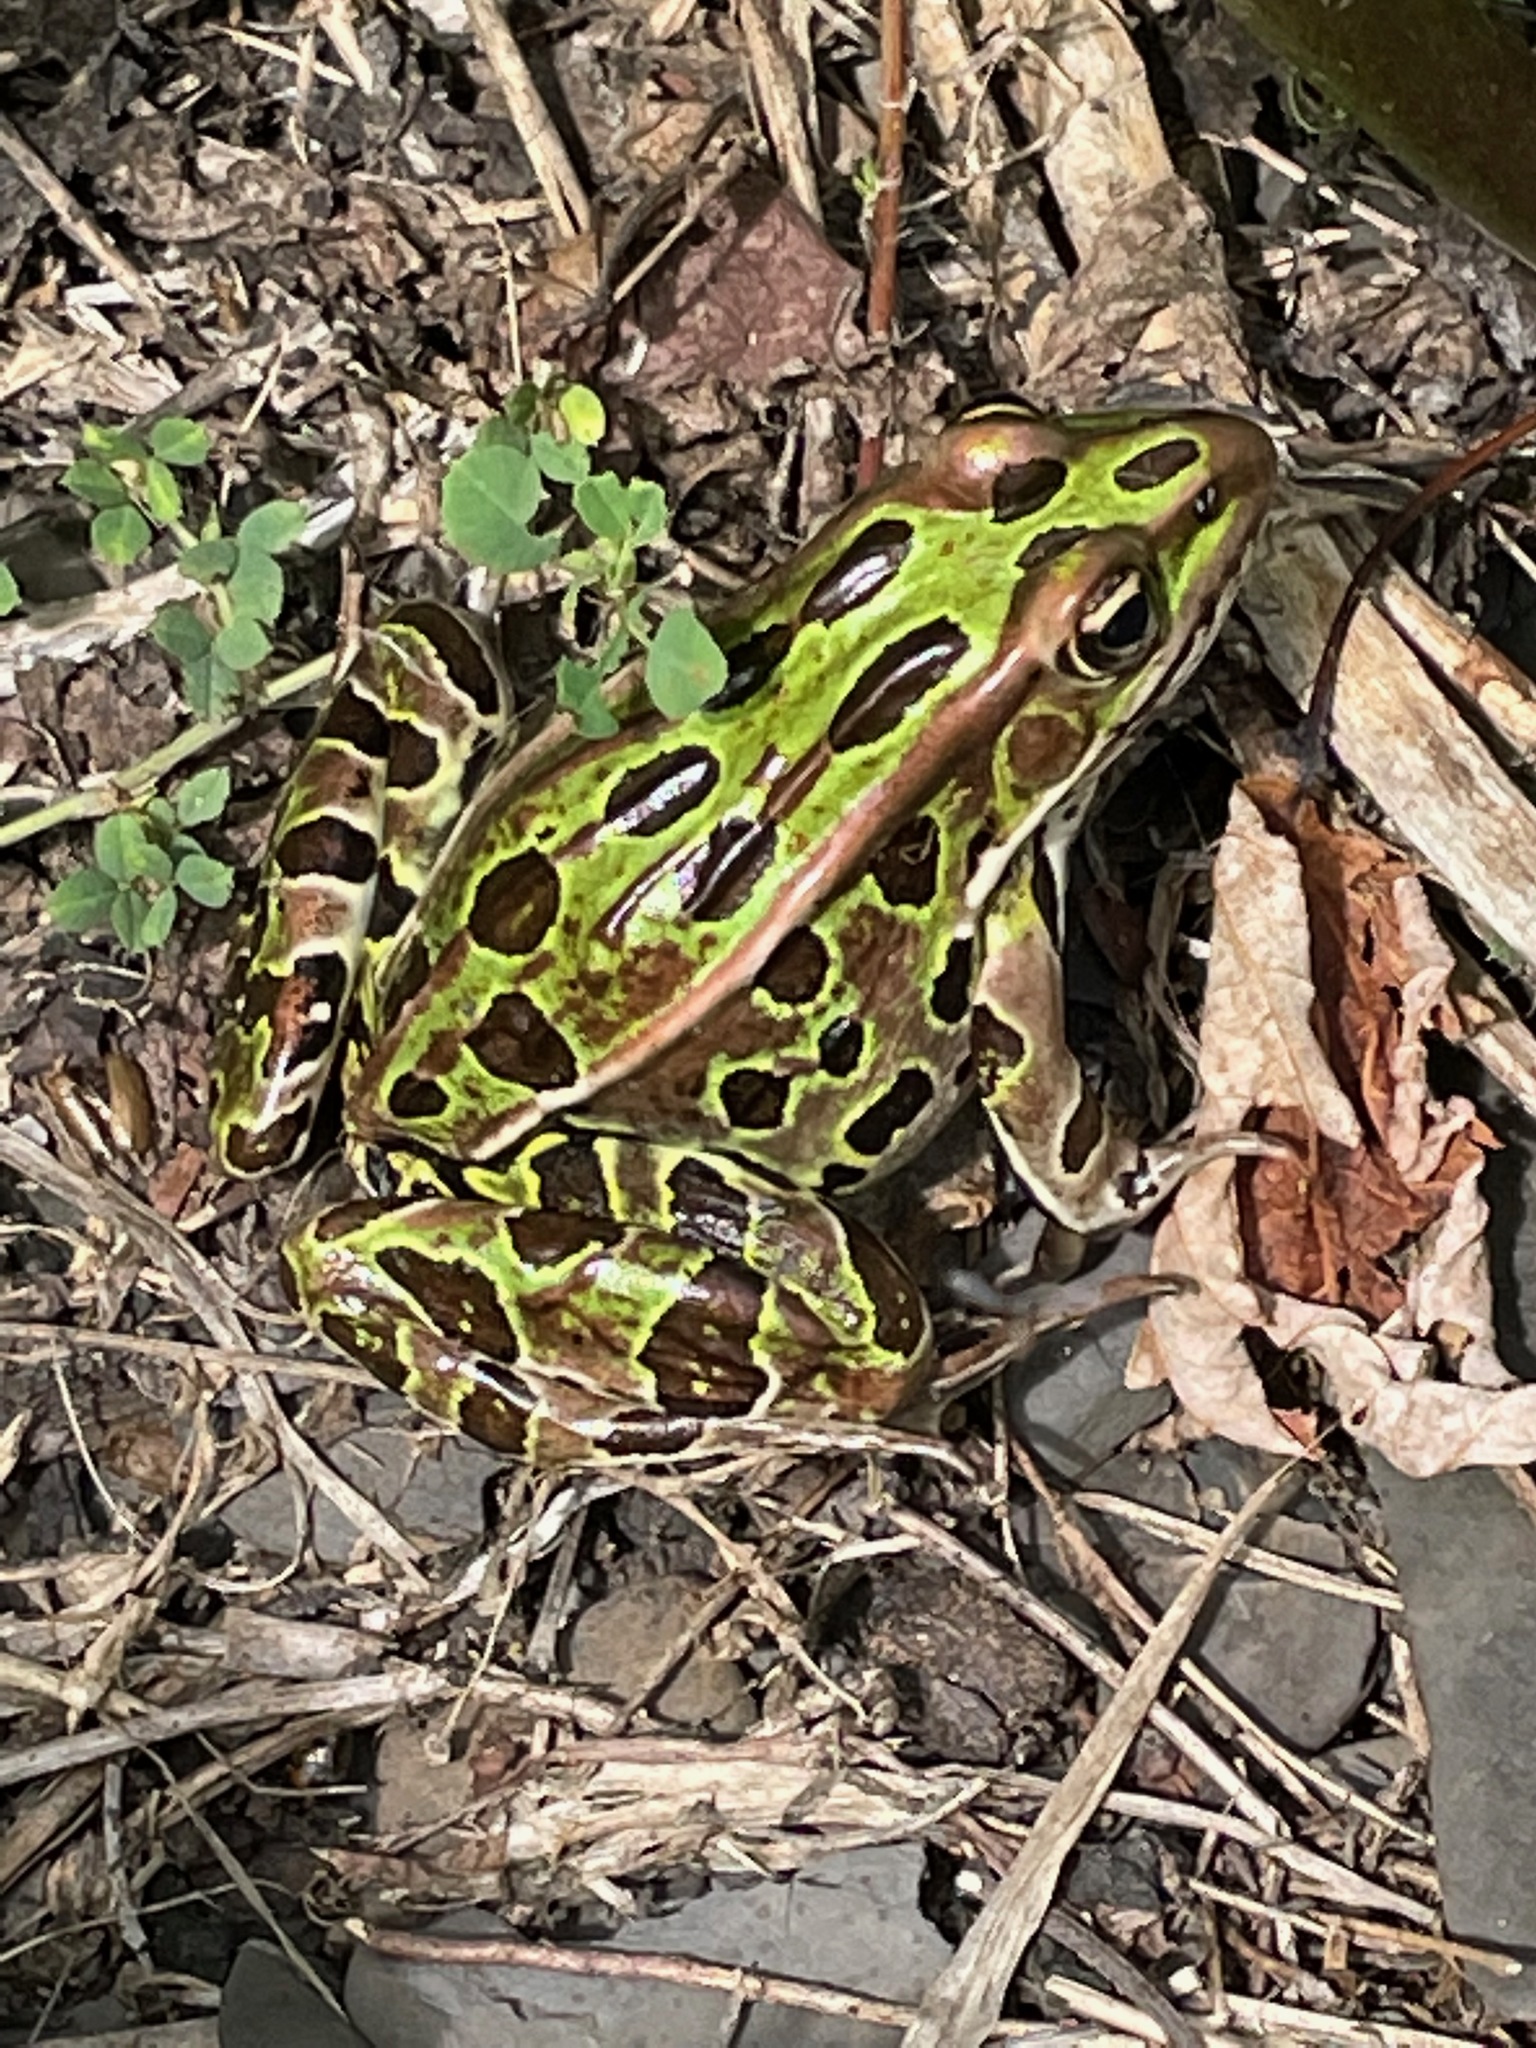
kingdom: Animalia
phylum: Chordata
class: Amphibia
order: Anura
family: Ranidae
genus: Lithobates
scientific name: Lithobates pipiens
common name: Northern leopard frog
